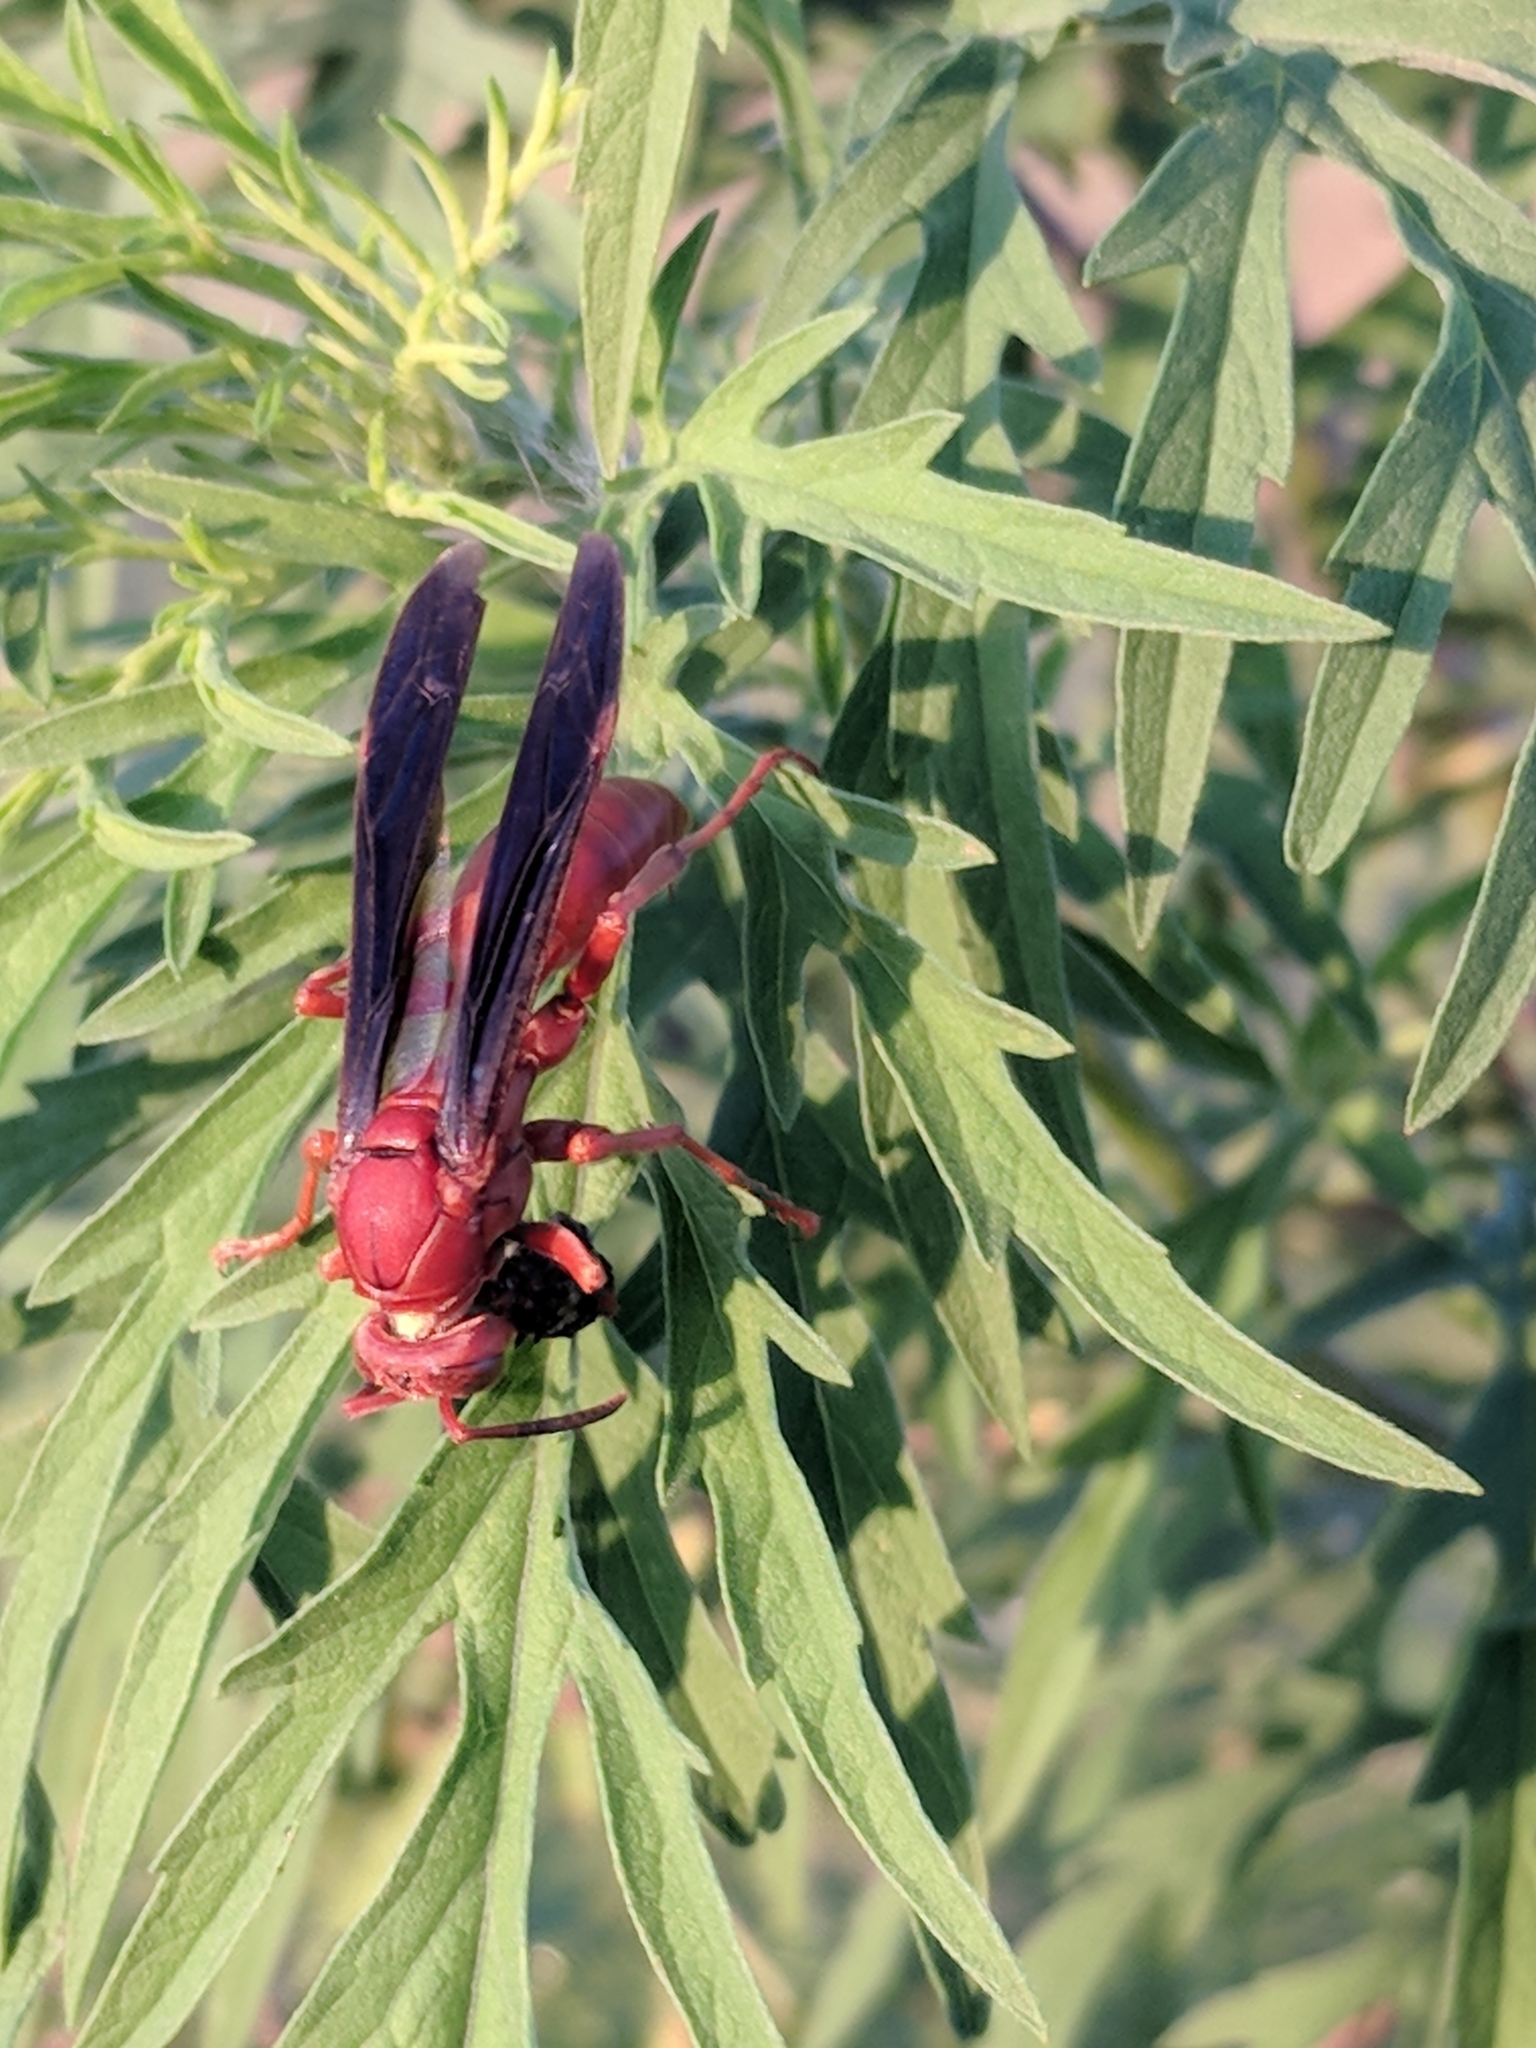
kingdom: Animalia
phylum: Arthropoda
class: Insecta
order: Hymenoptera
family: Vespidae
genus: Fuscopolistes
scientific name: Fuscopolistes
